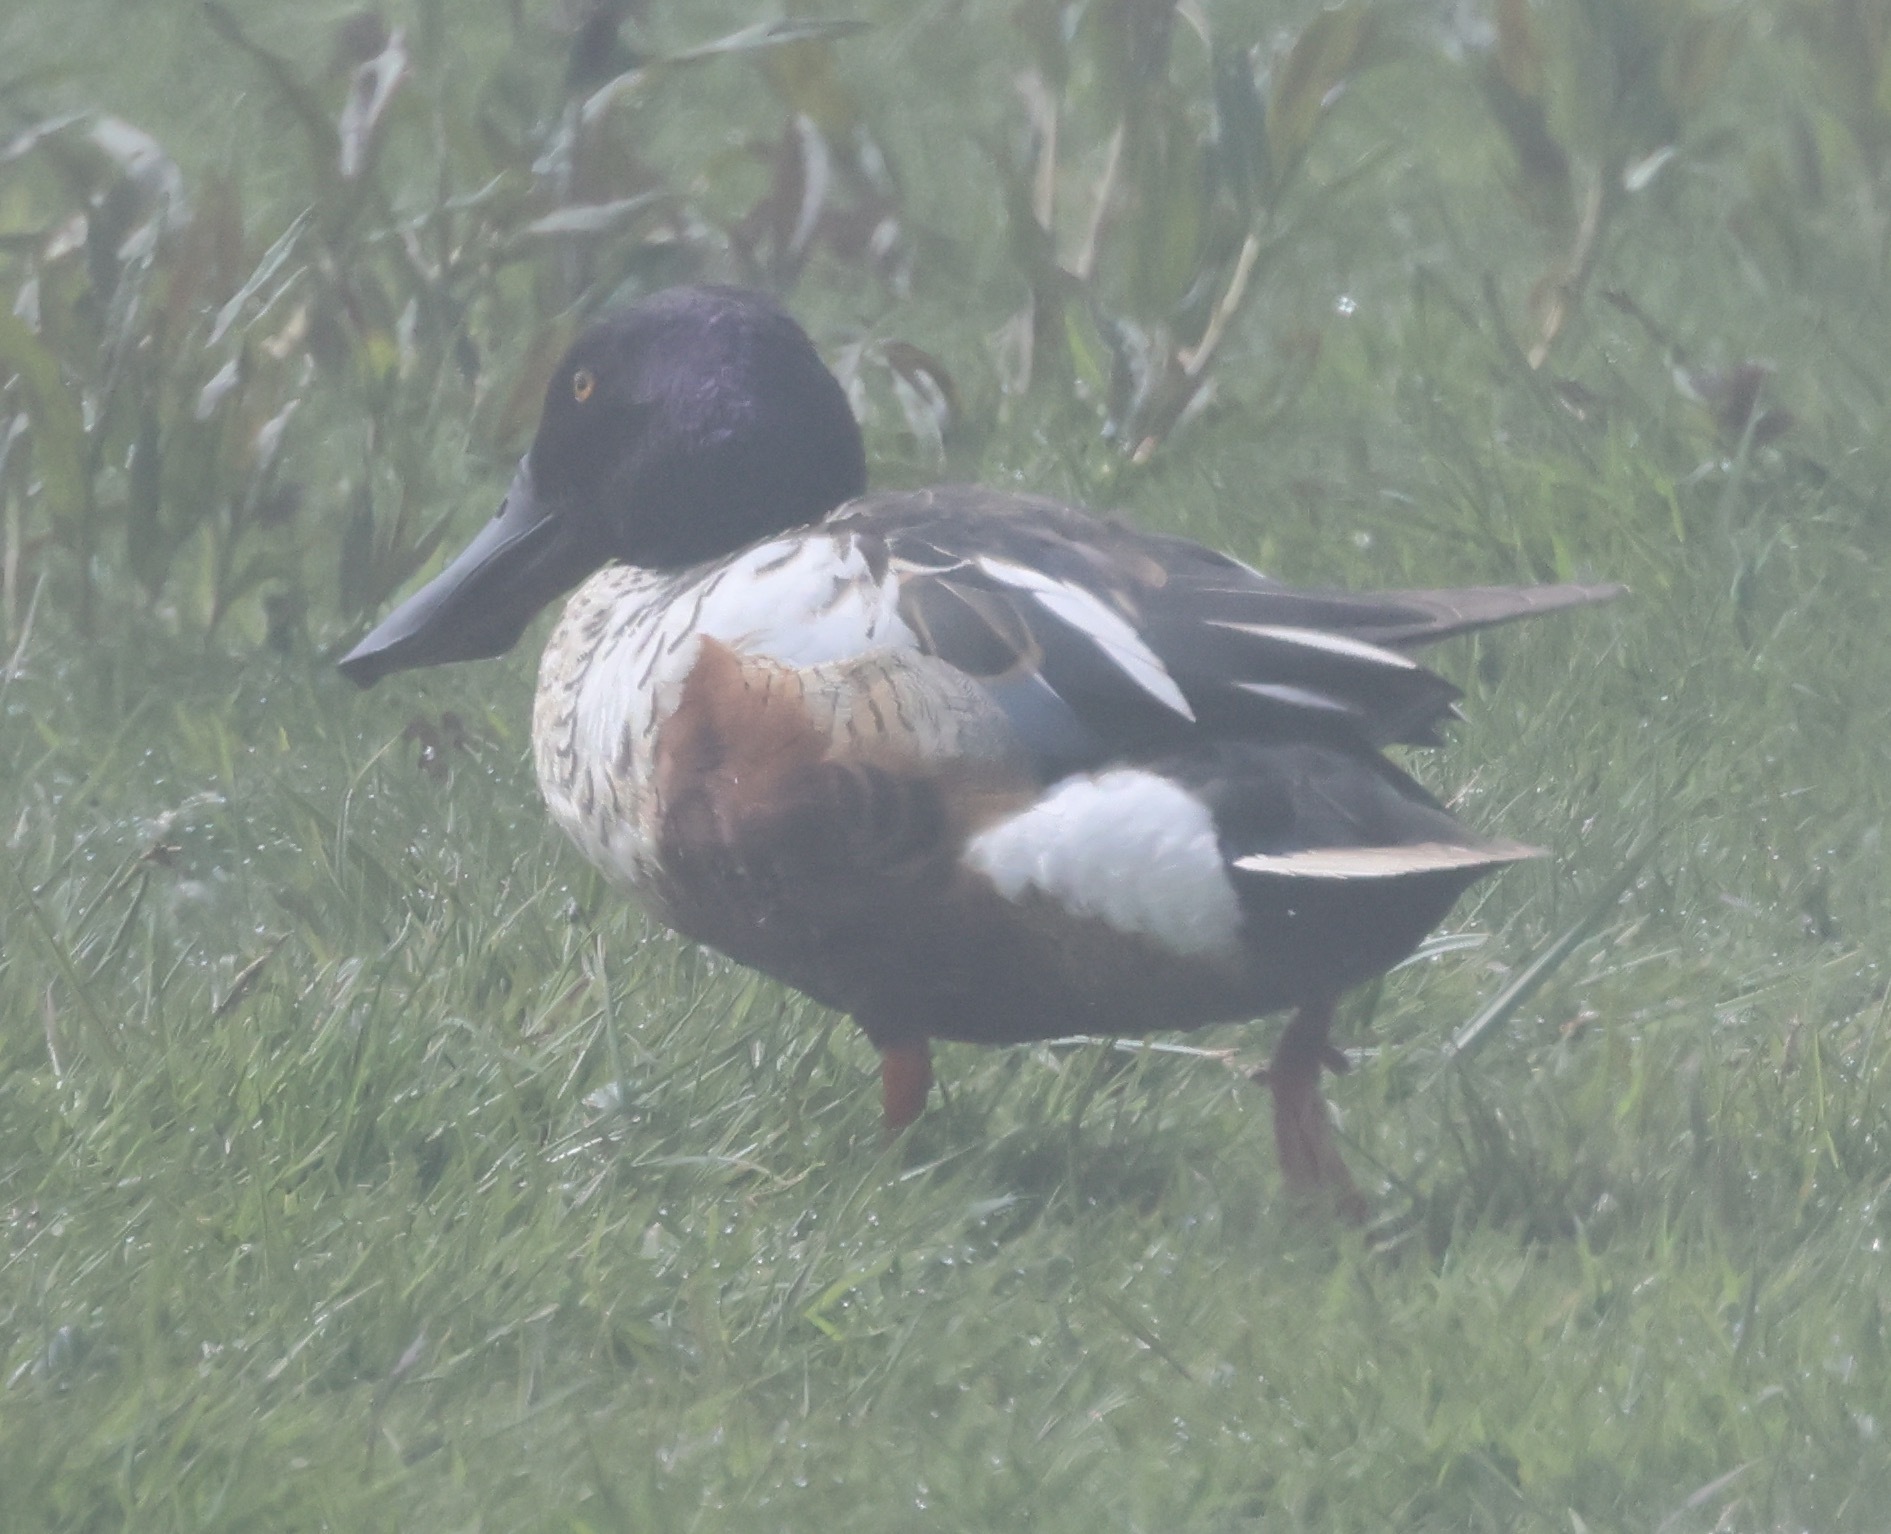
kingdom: Animalia
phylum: Chordata
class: Aves
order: Anseriformes
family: Anatidae
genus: Spatula
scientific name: Spatula clypeata
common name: Northern shoveler
